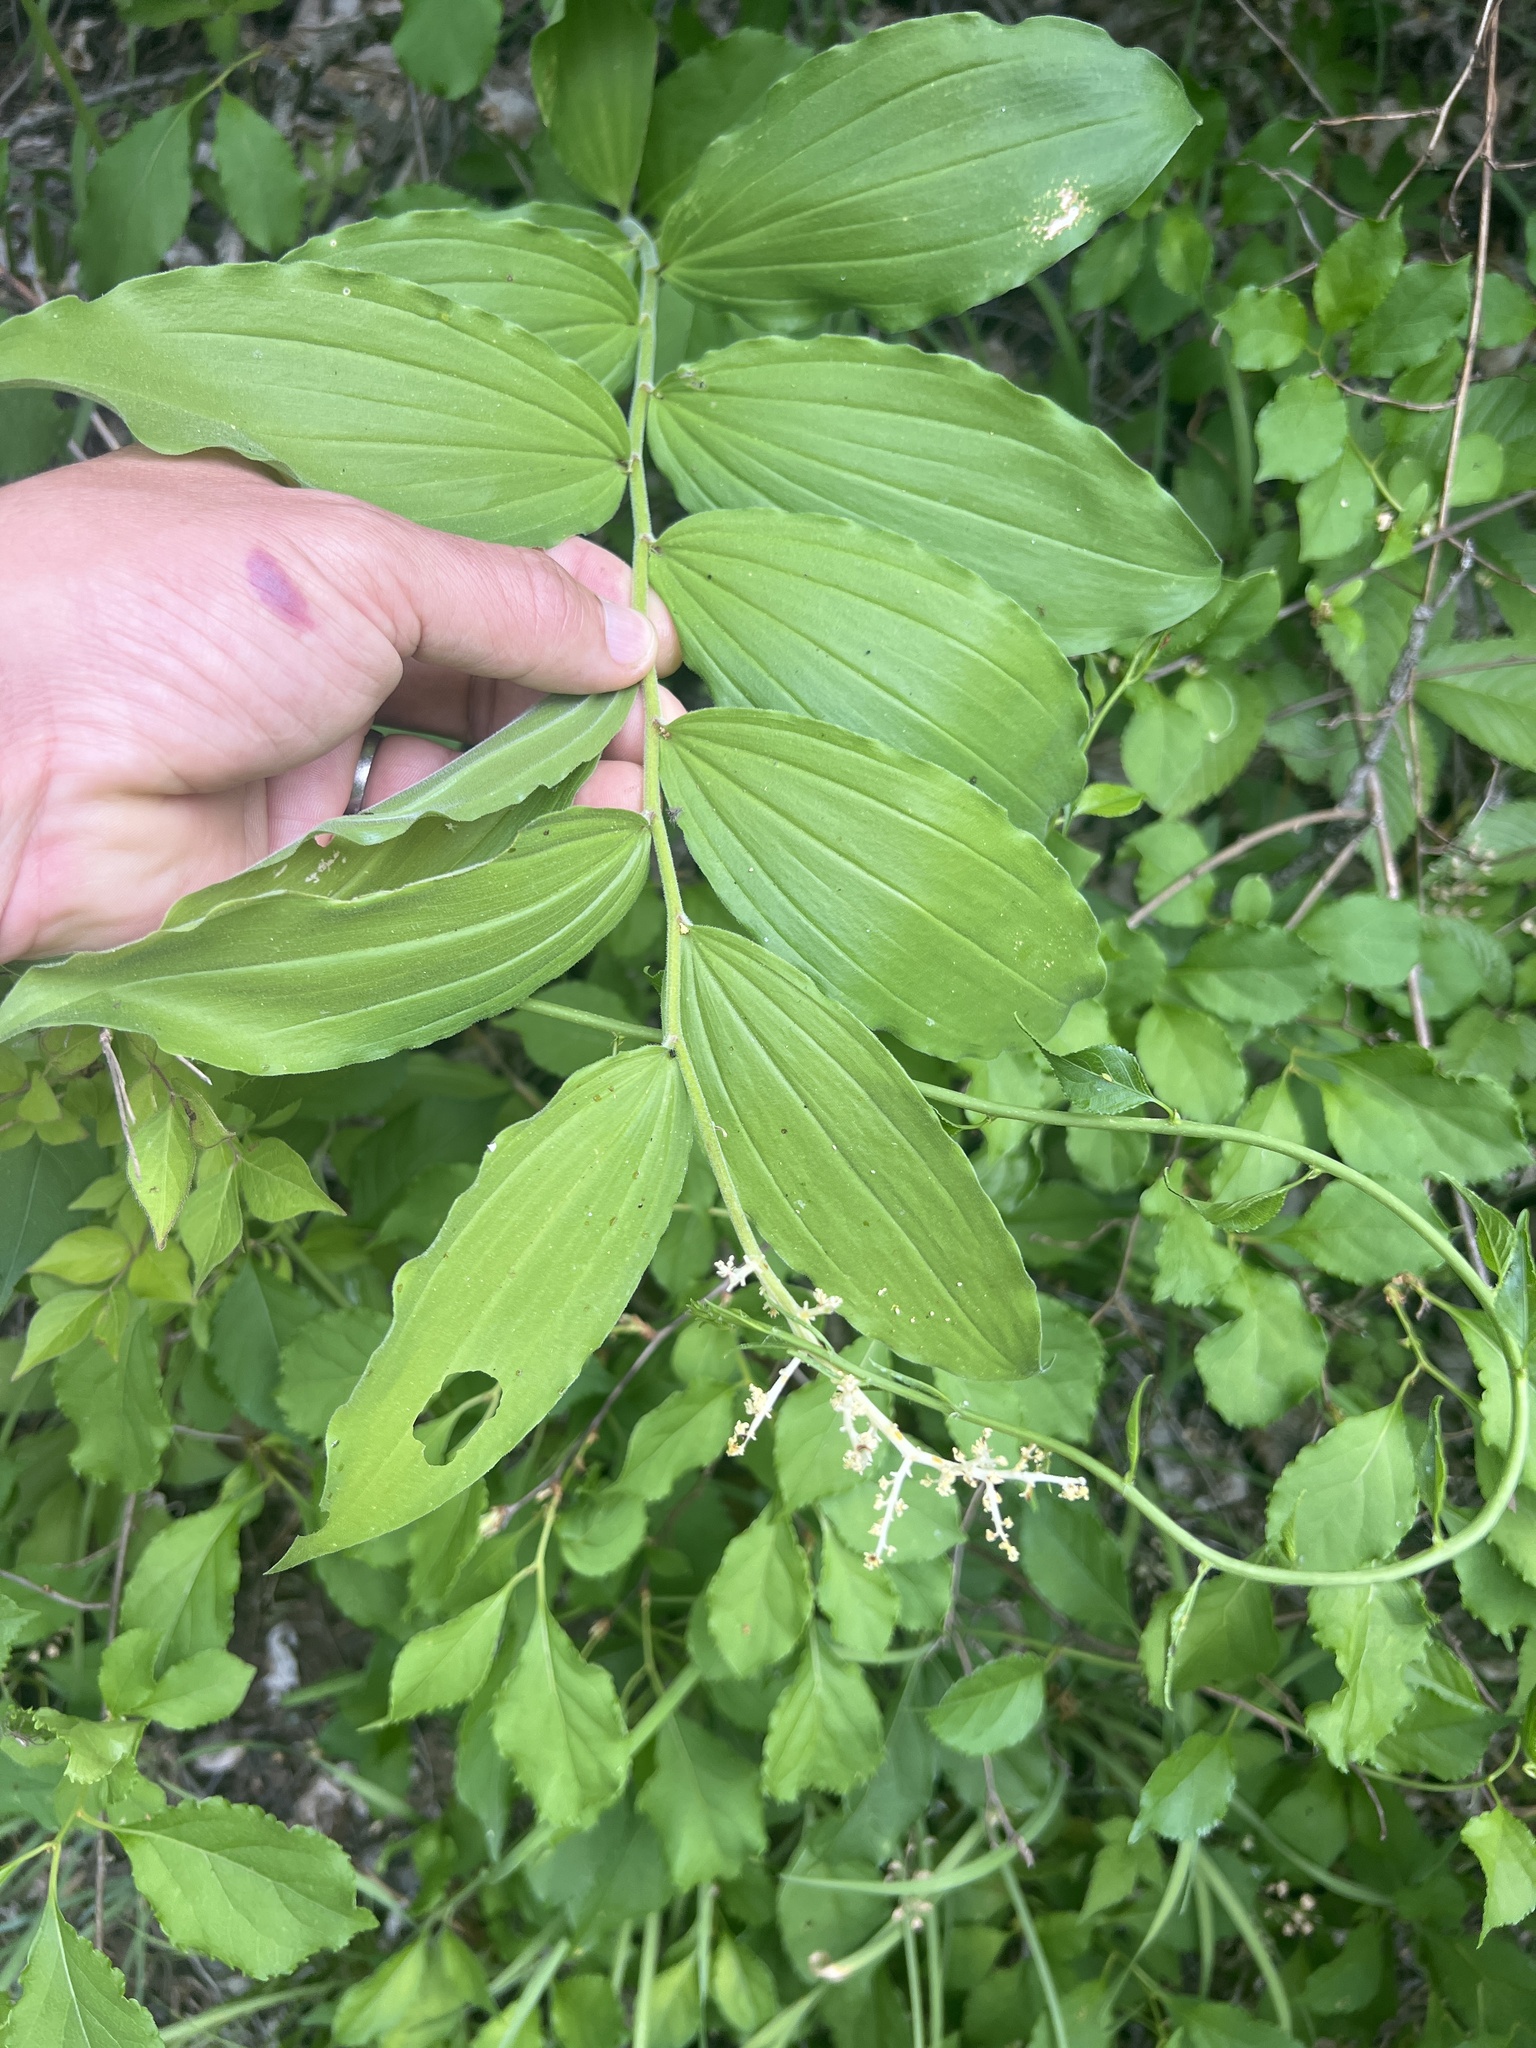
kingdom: Plantae
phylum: Tracheophyta
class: Liliopsida
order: Asparagales
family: Asparagaceae
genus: Maianthemum
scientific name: Maianthemum racemosum
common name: False spikenard
